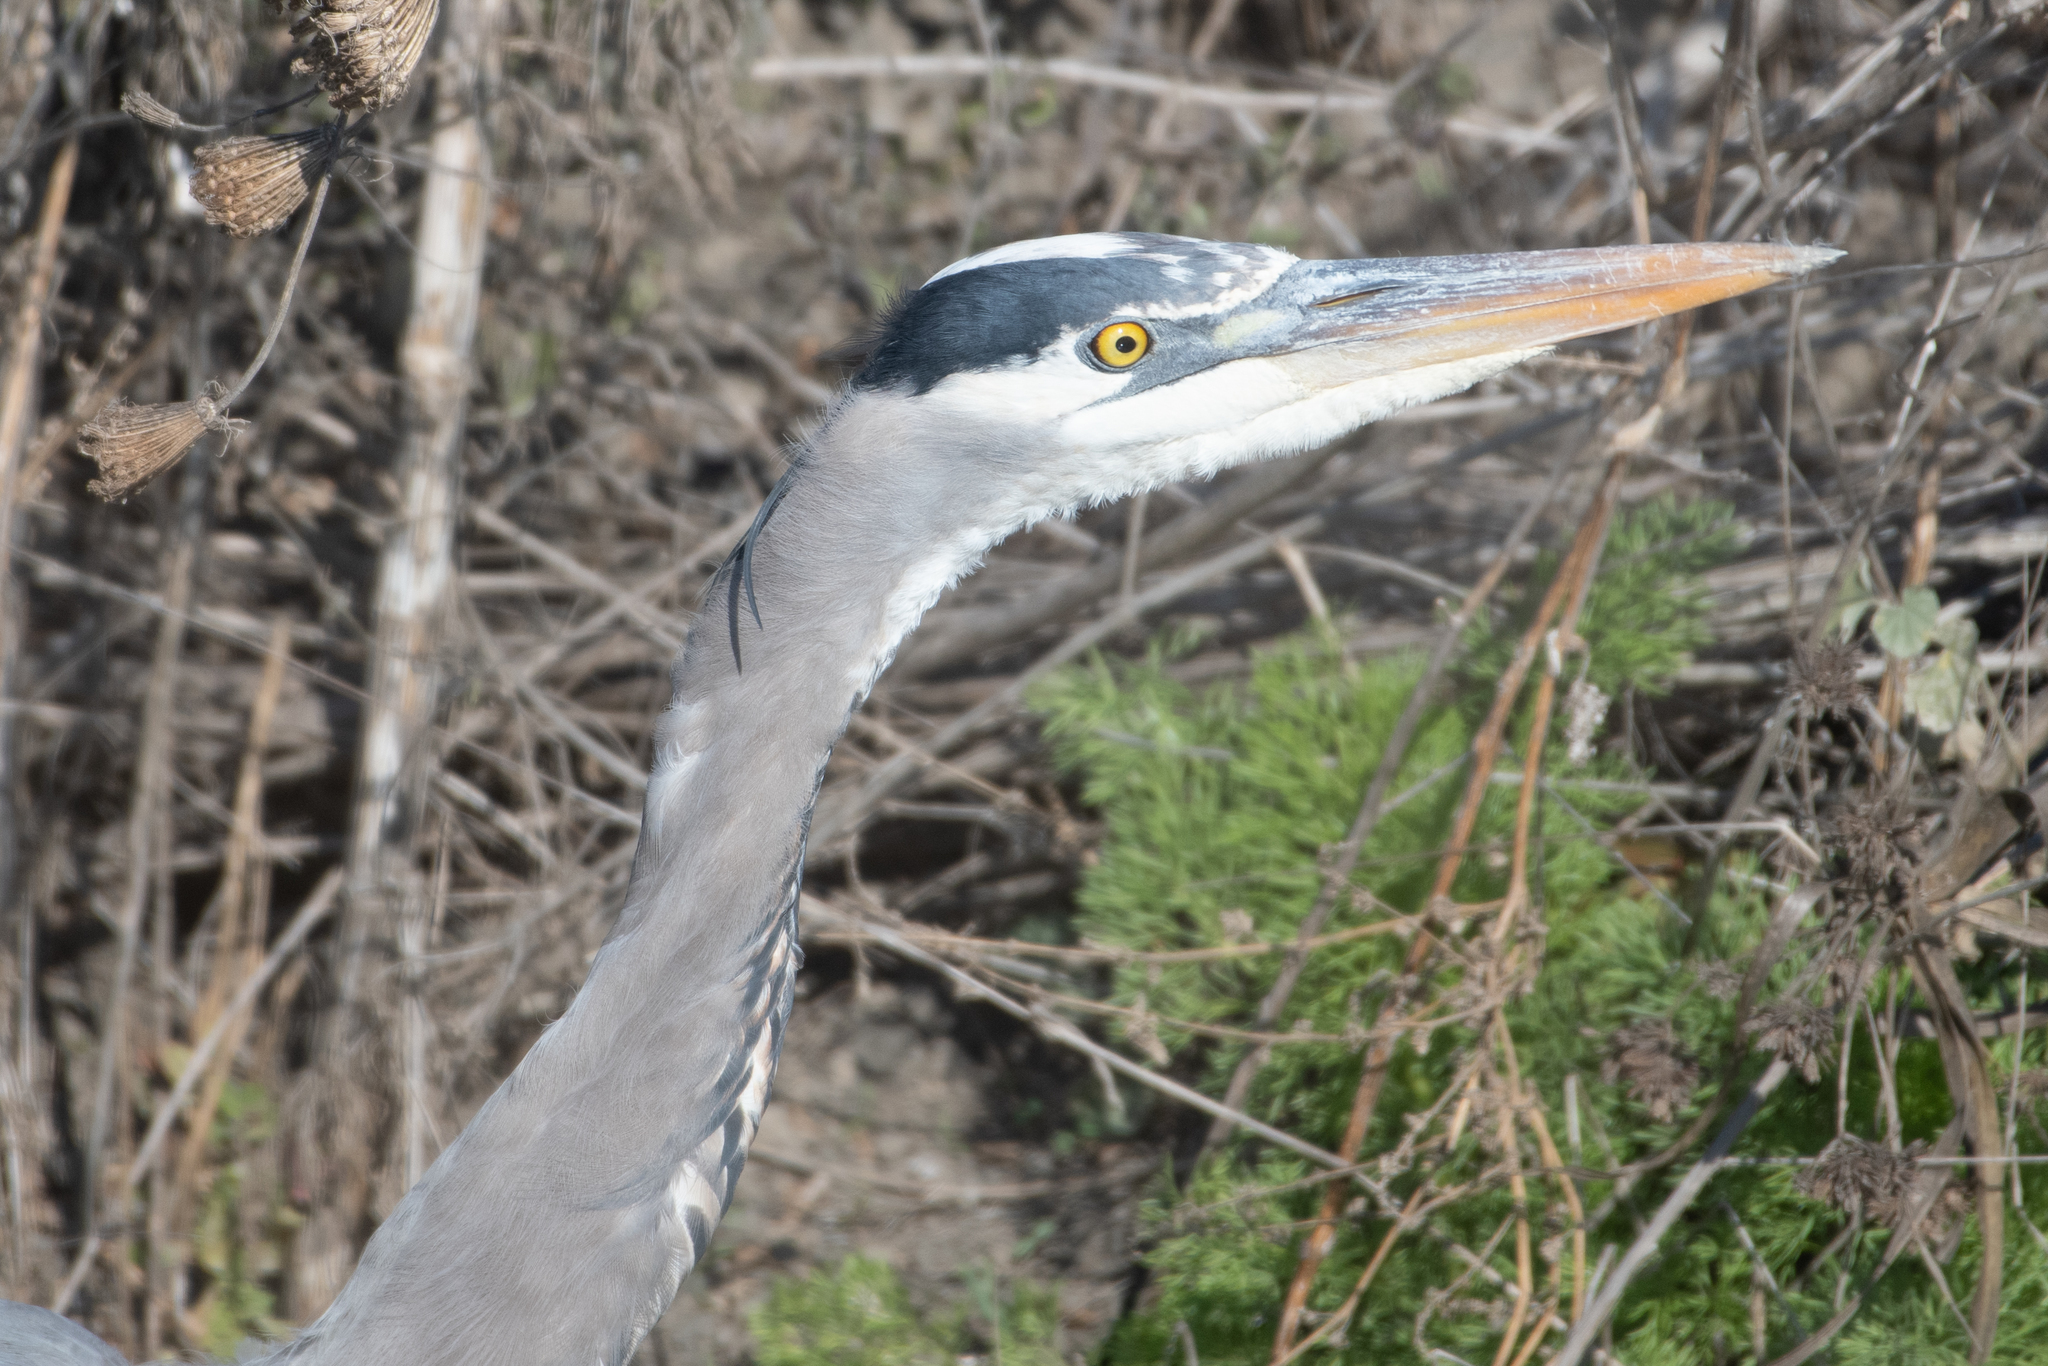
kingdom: Animalia
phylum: Chordata
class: Aves
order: Pelecaniformes
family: Ardeidae
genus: Ardea
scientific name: Ardea herodias
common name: Great blue heron
